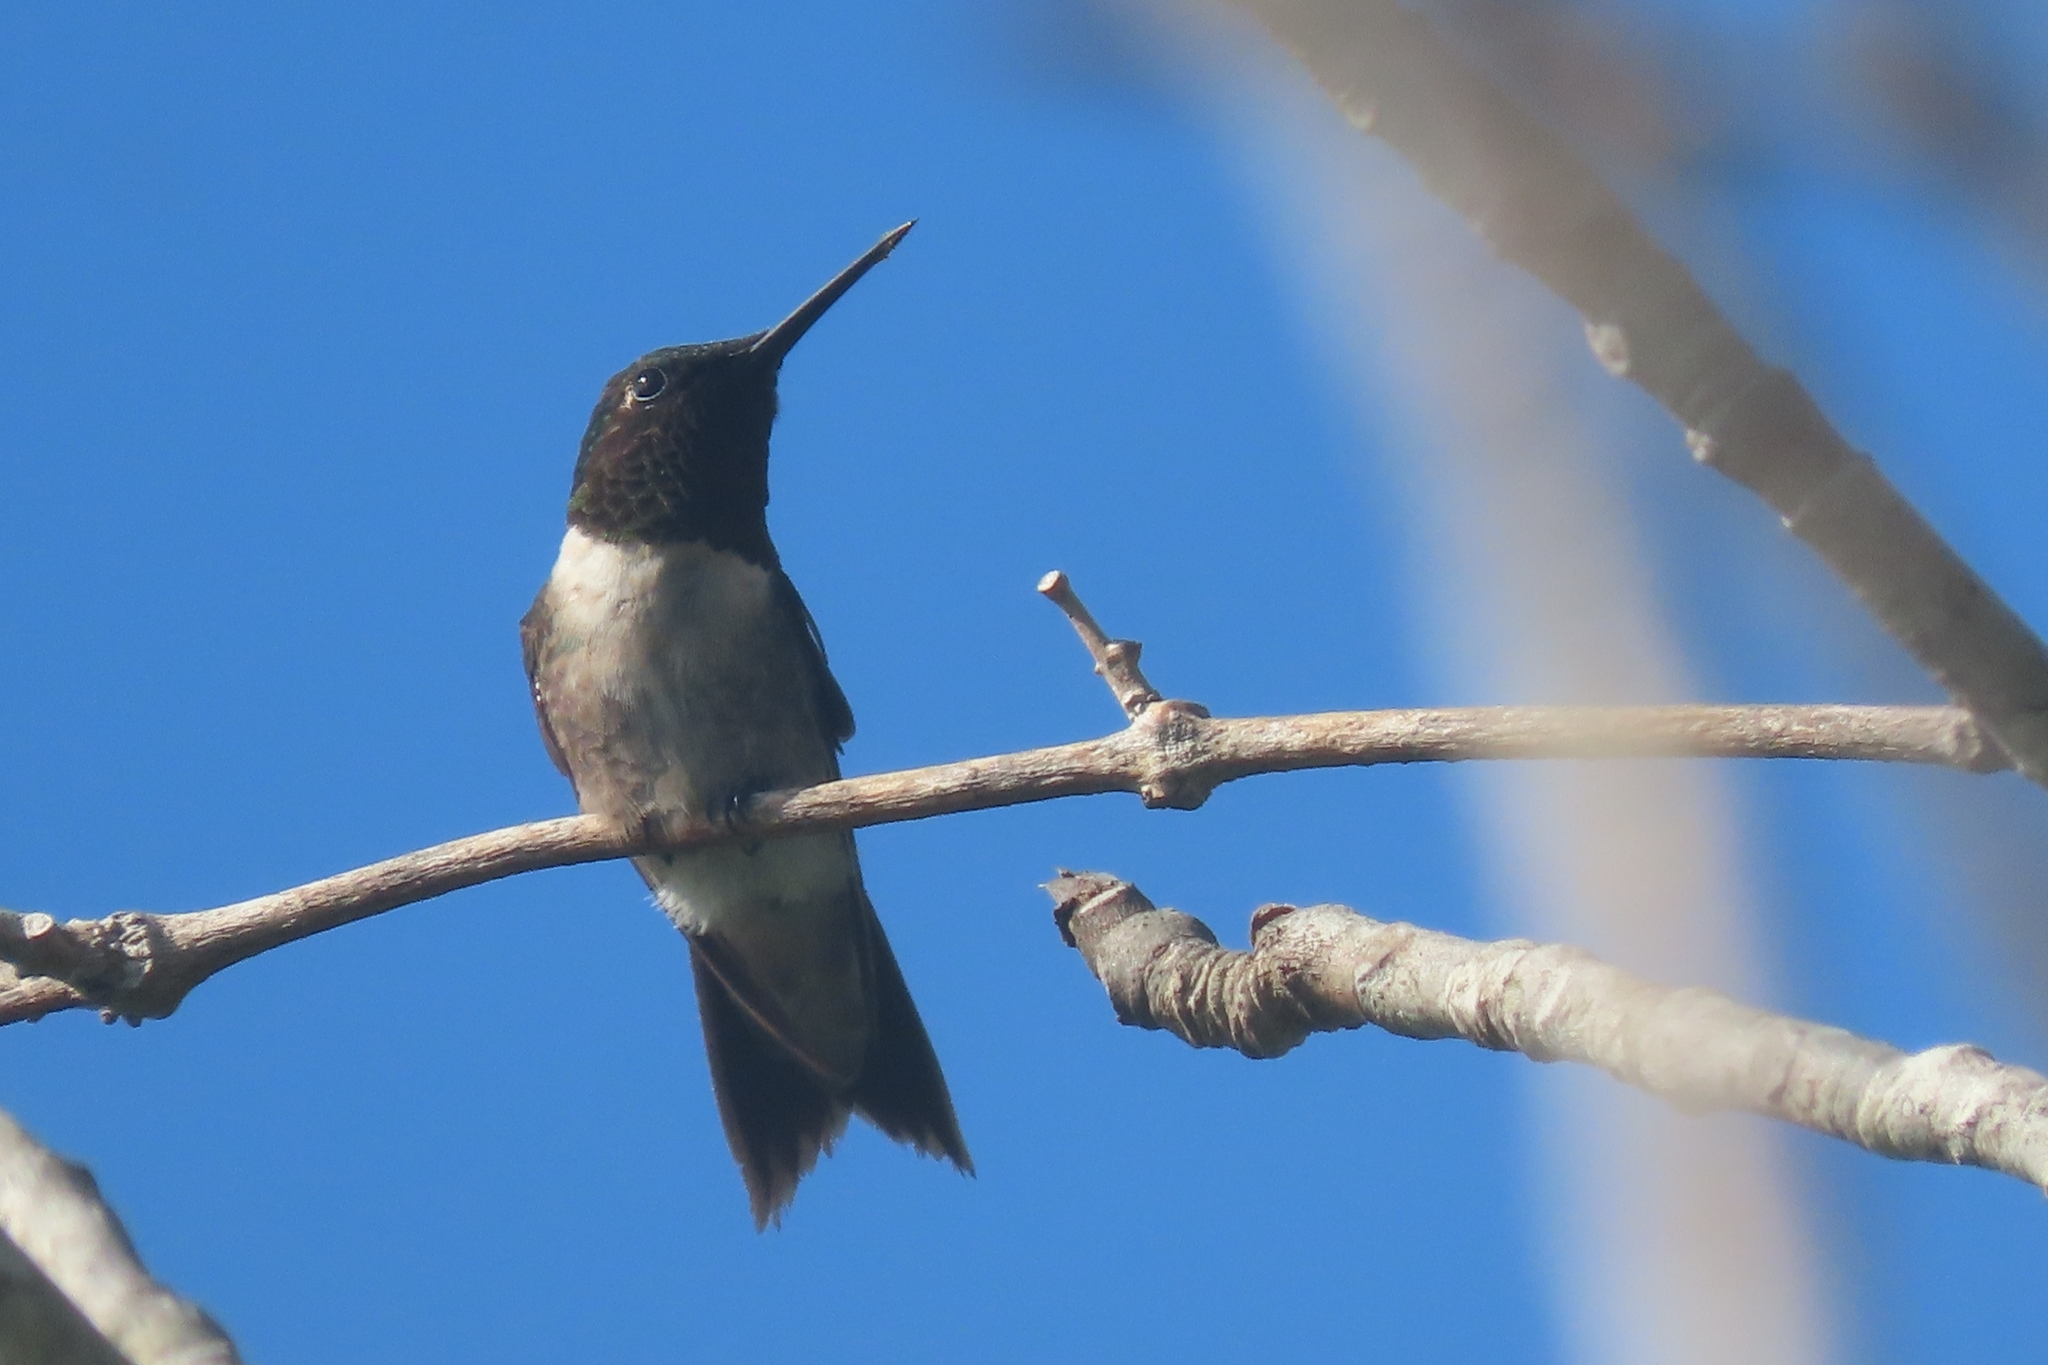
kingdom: Animalia
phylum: Chordata
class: Aves
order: Apodiformes
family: Trochilidae
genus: Archilochus
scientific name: Archilochus colubris
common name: Ruby-throated hummingbird
